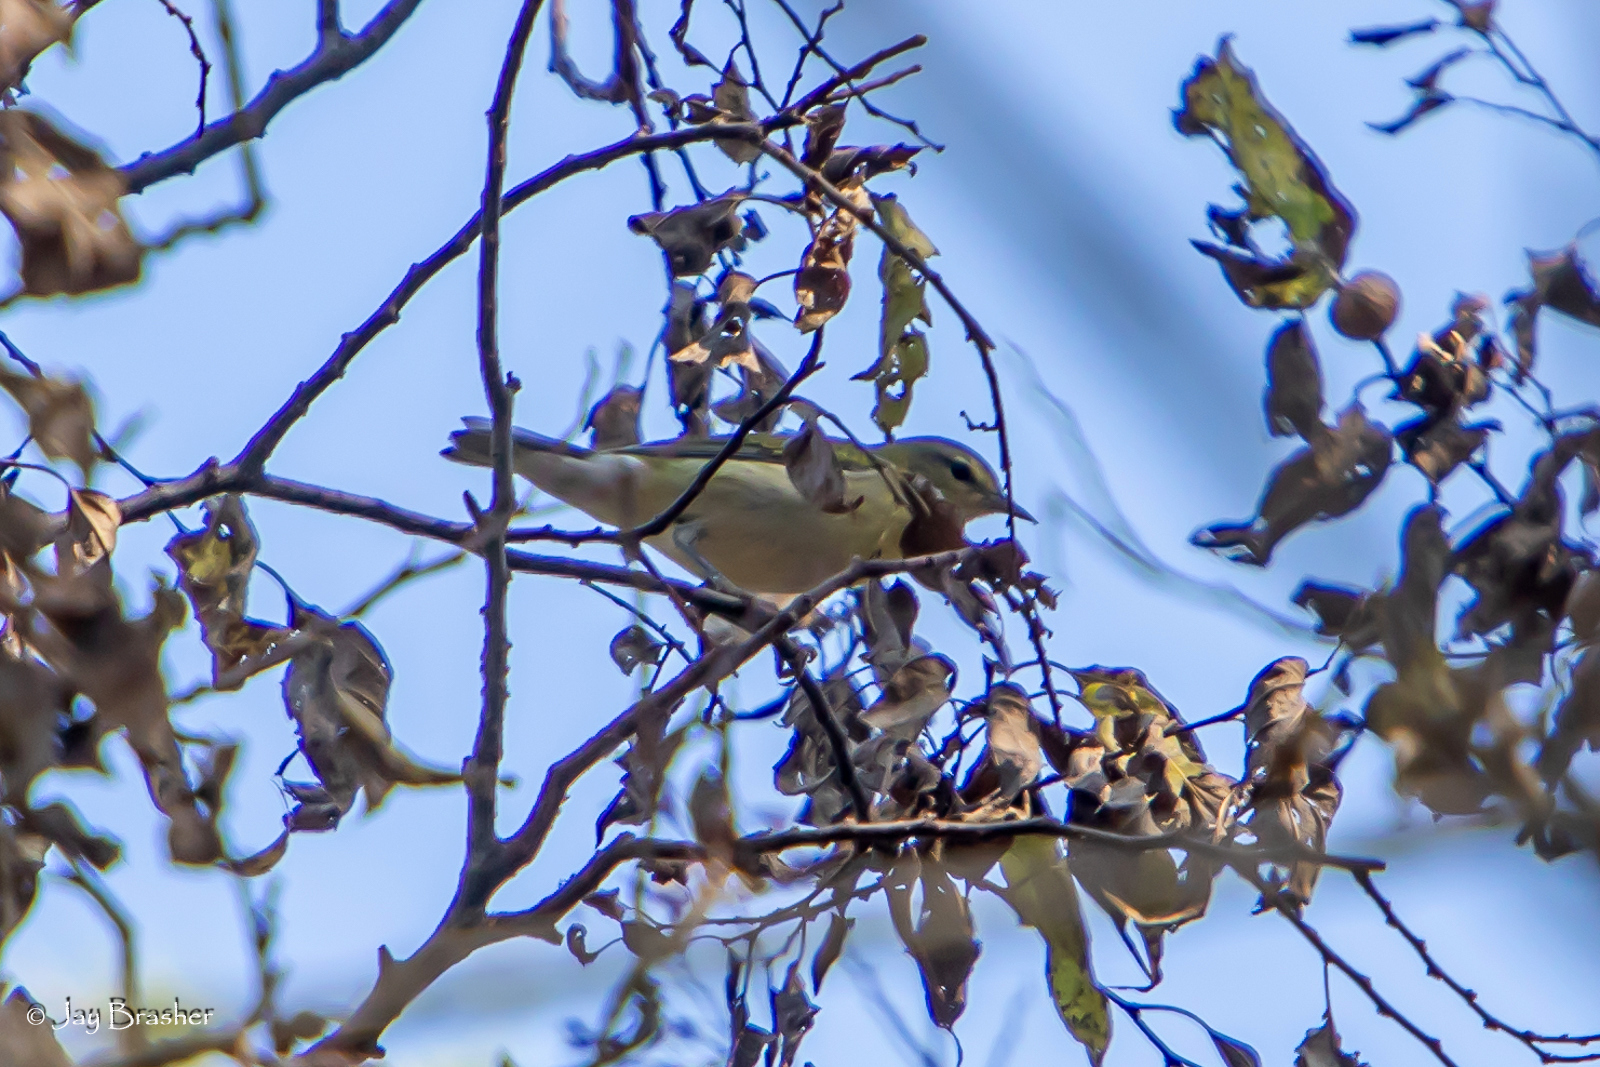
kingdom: Animalia
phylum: Chordata
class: Aves
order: Passeriformes
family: Parulidae
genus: Leiothlypis
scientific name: Leiothlypis peregrina
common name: Tennessee warbler
